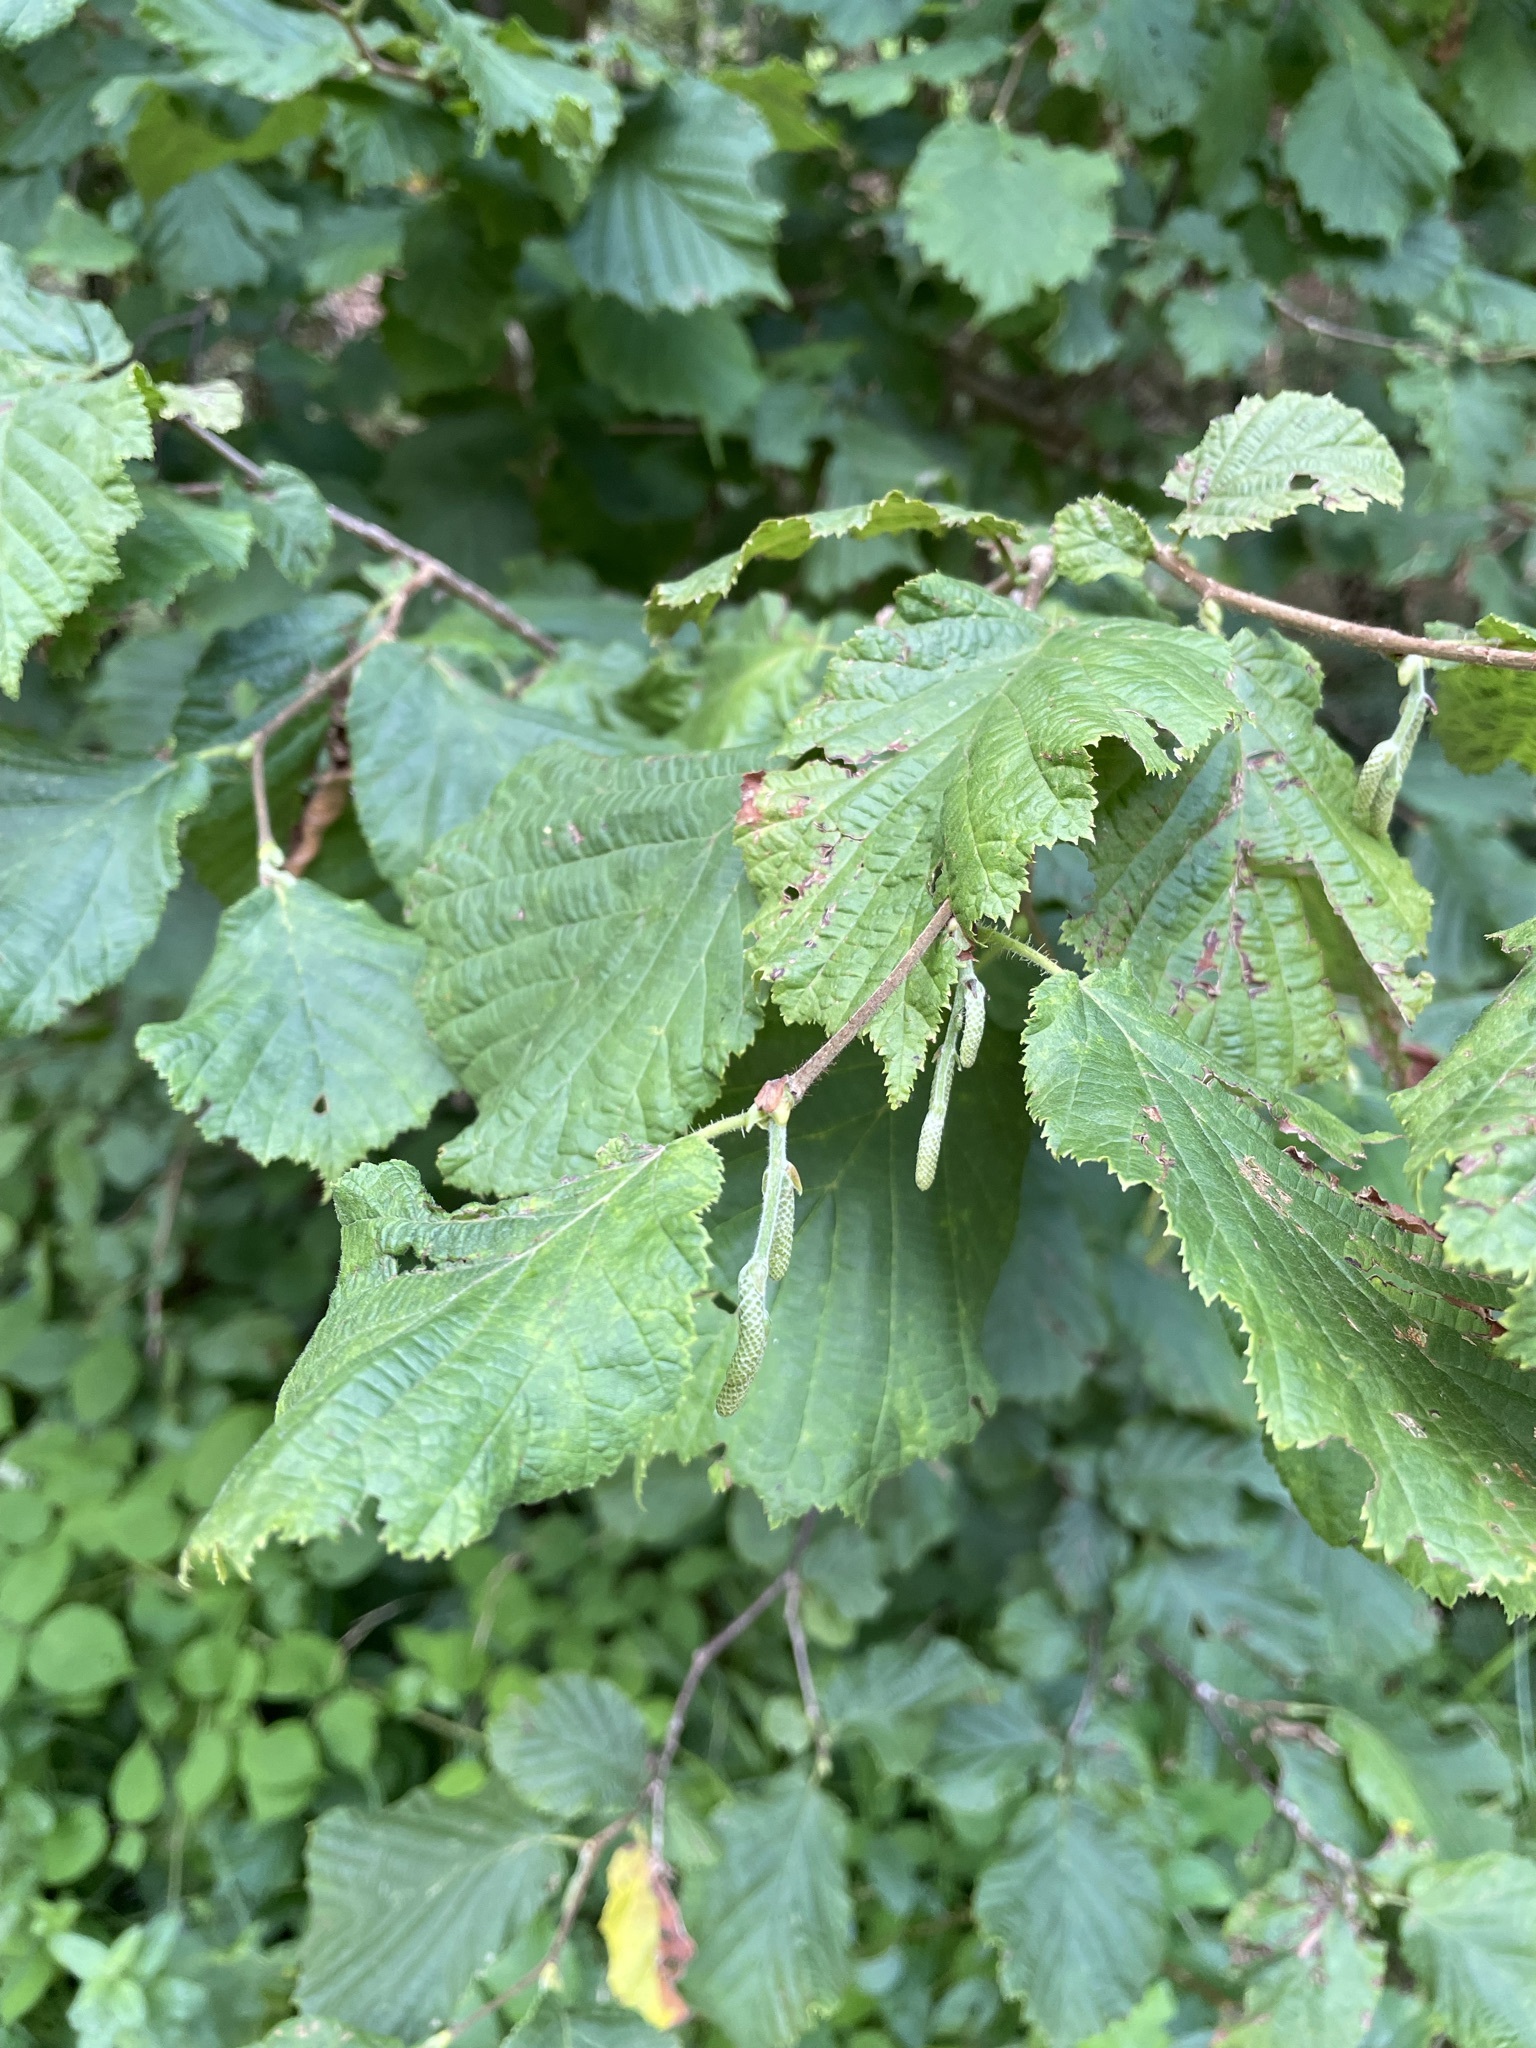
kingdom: Plantae
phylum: Tracheophyta
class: Magnoliopsida
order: Fagales
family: Betulaceae
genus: Corylus
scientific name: Corylus avellana
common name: European hazel
